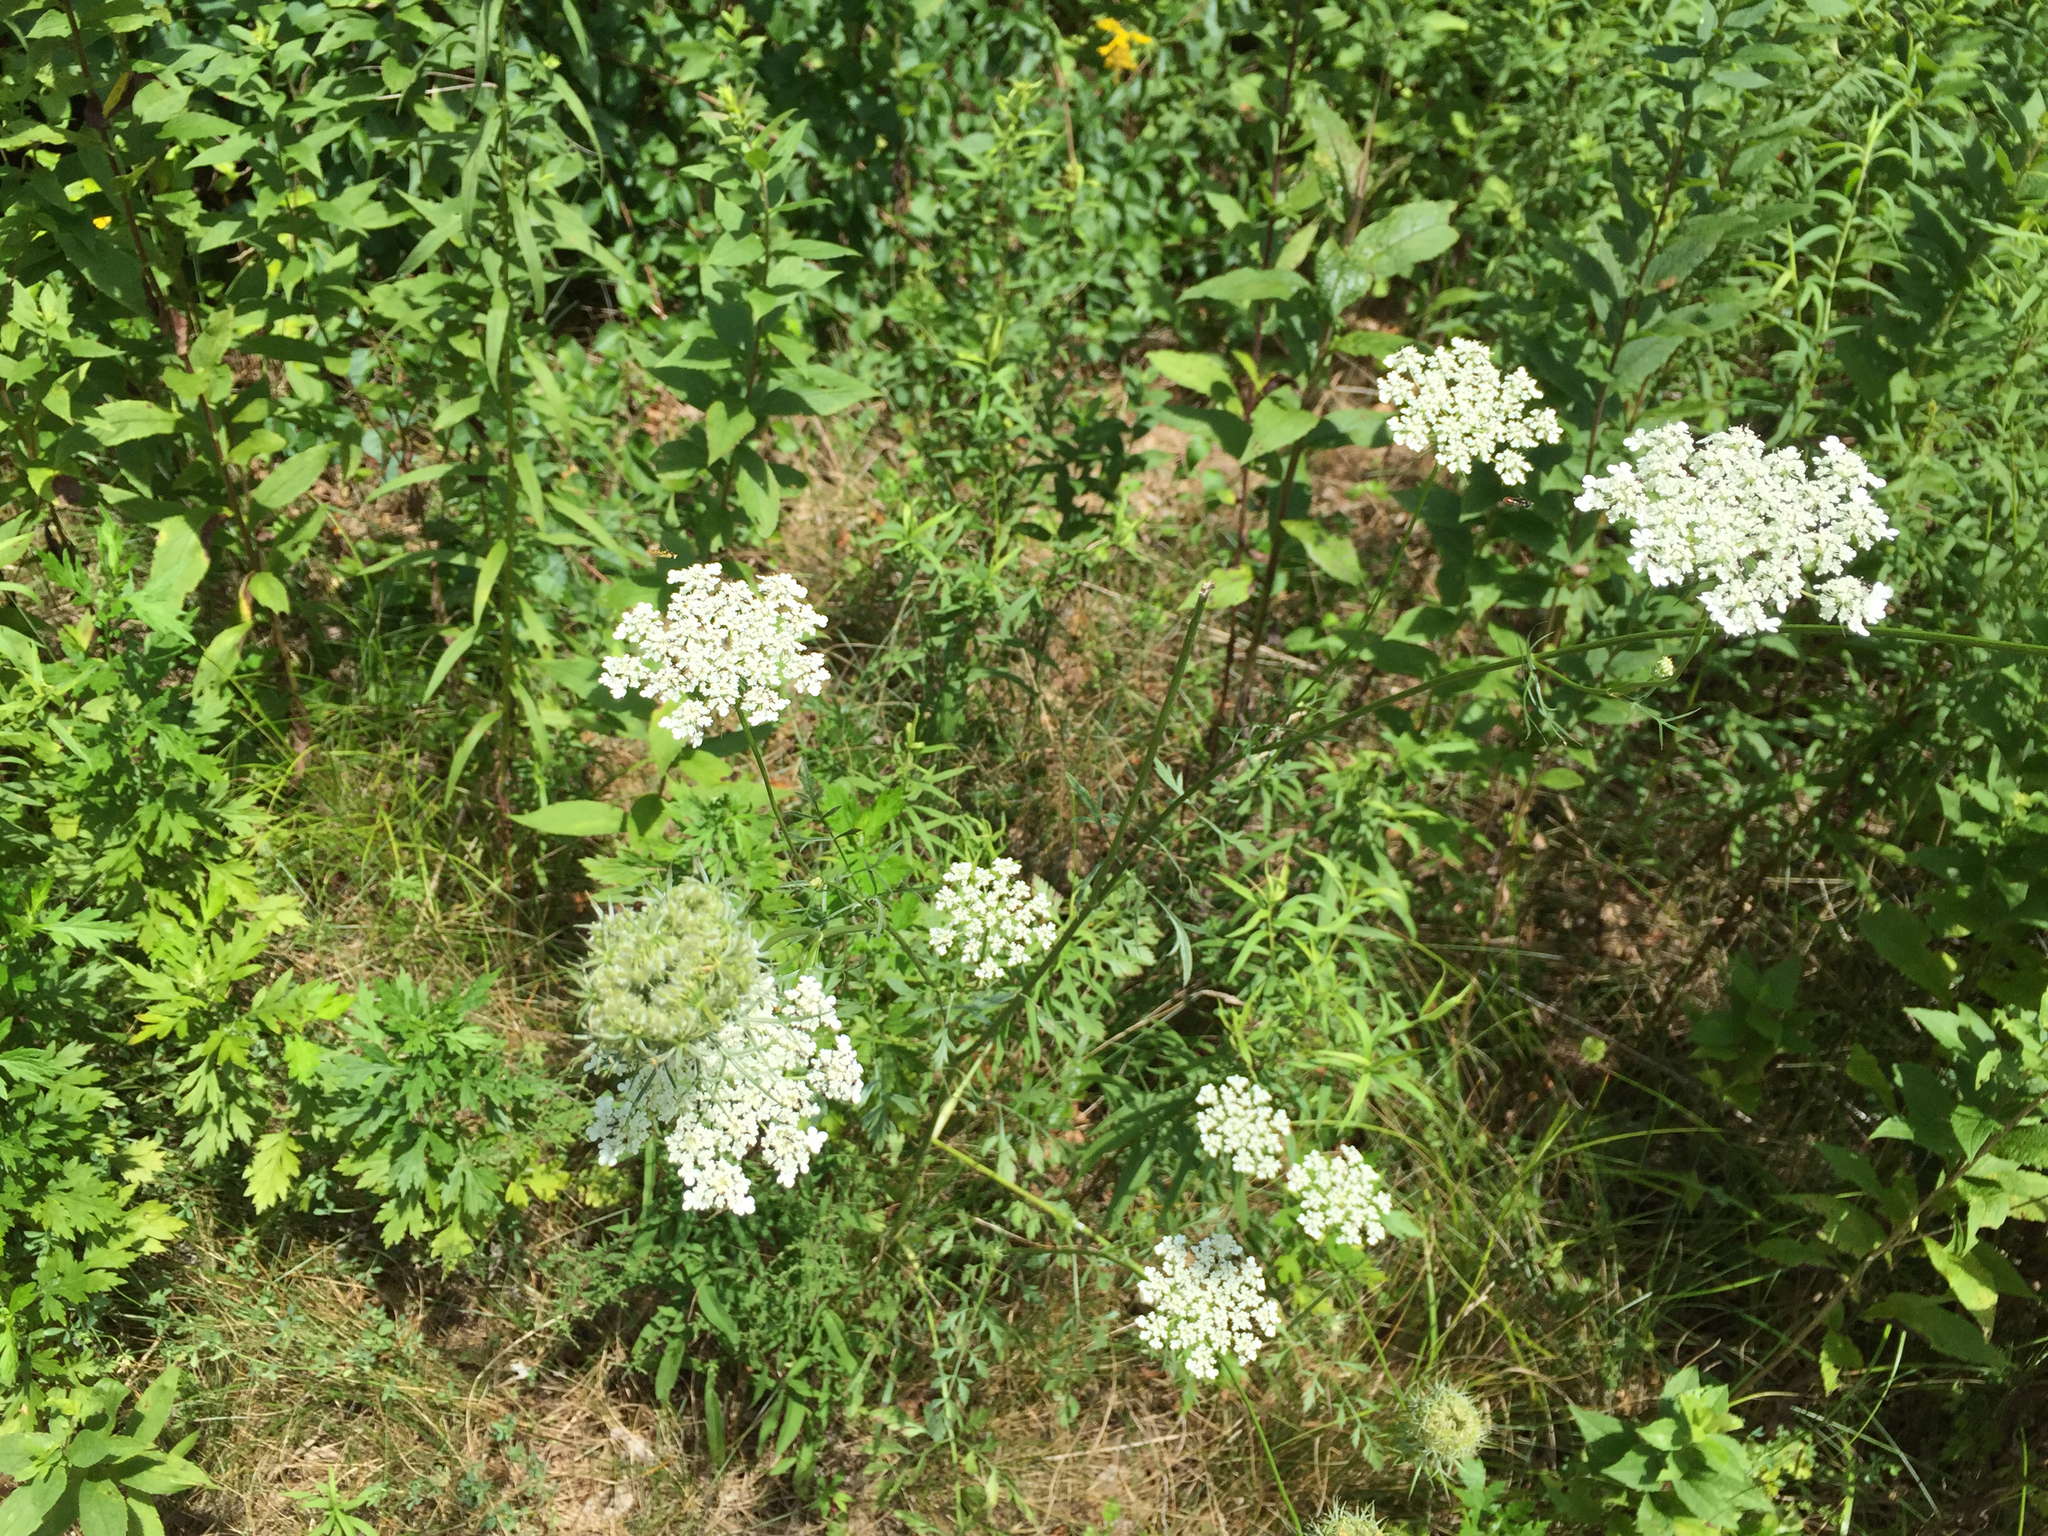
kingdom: Plantae
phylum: Tracheophyta
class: Magnoliopsida
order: Apiales
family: Apiaceae
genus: Daucus
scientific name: Daucus carota
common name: Wild carrot
